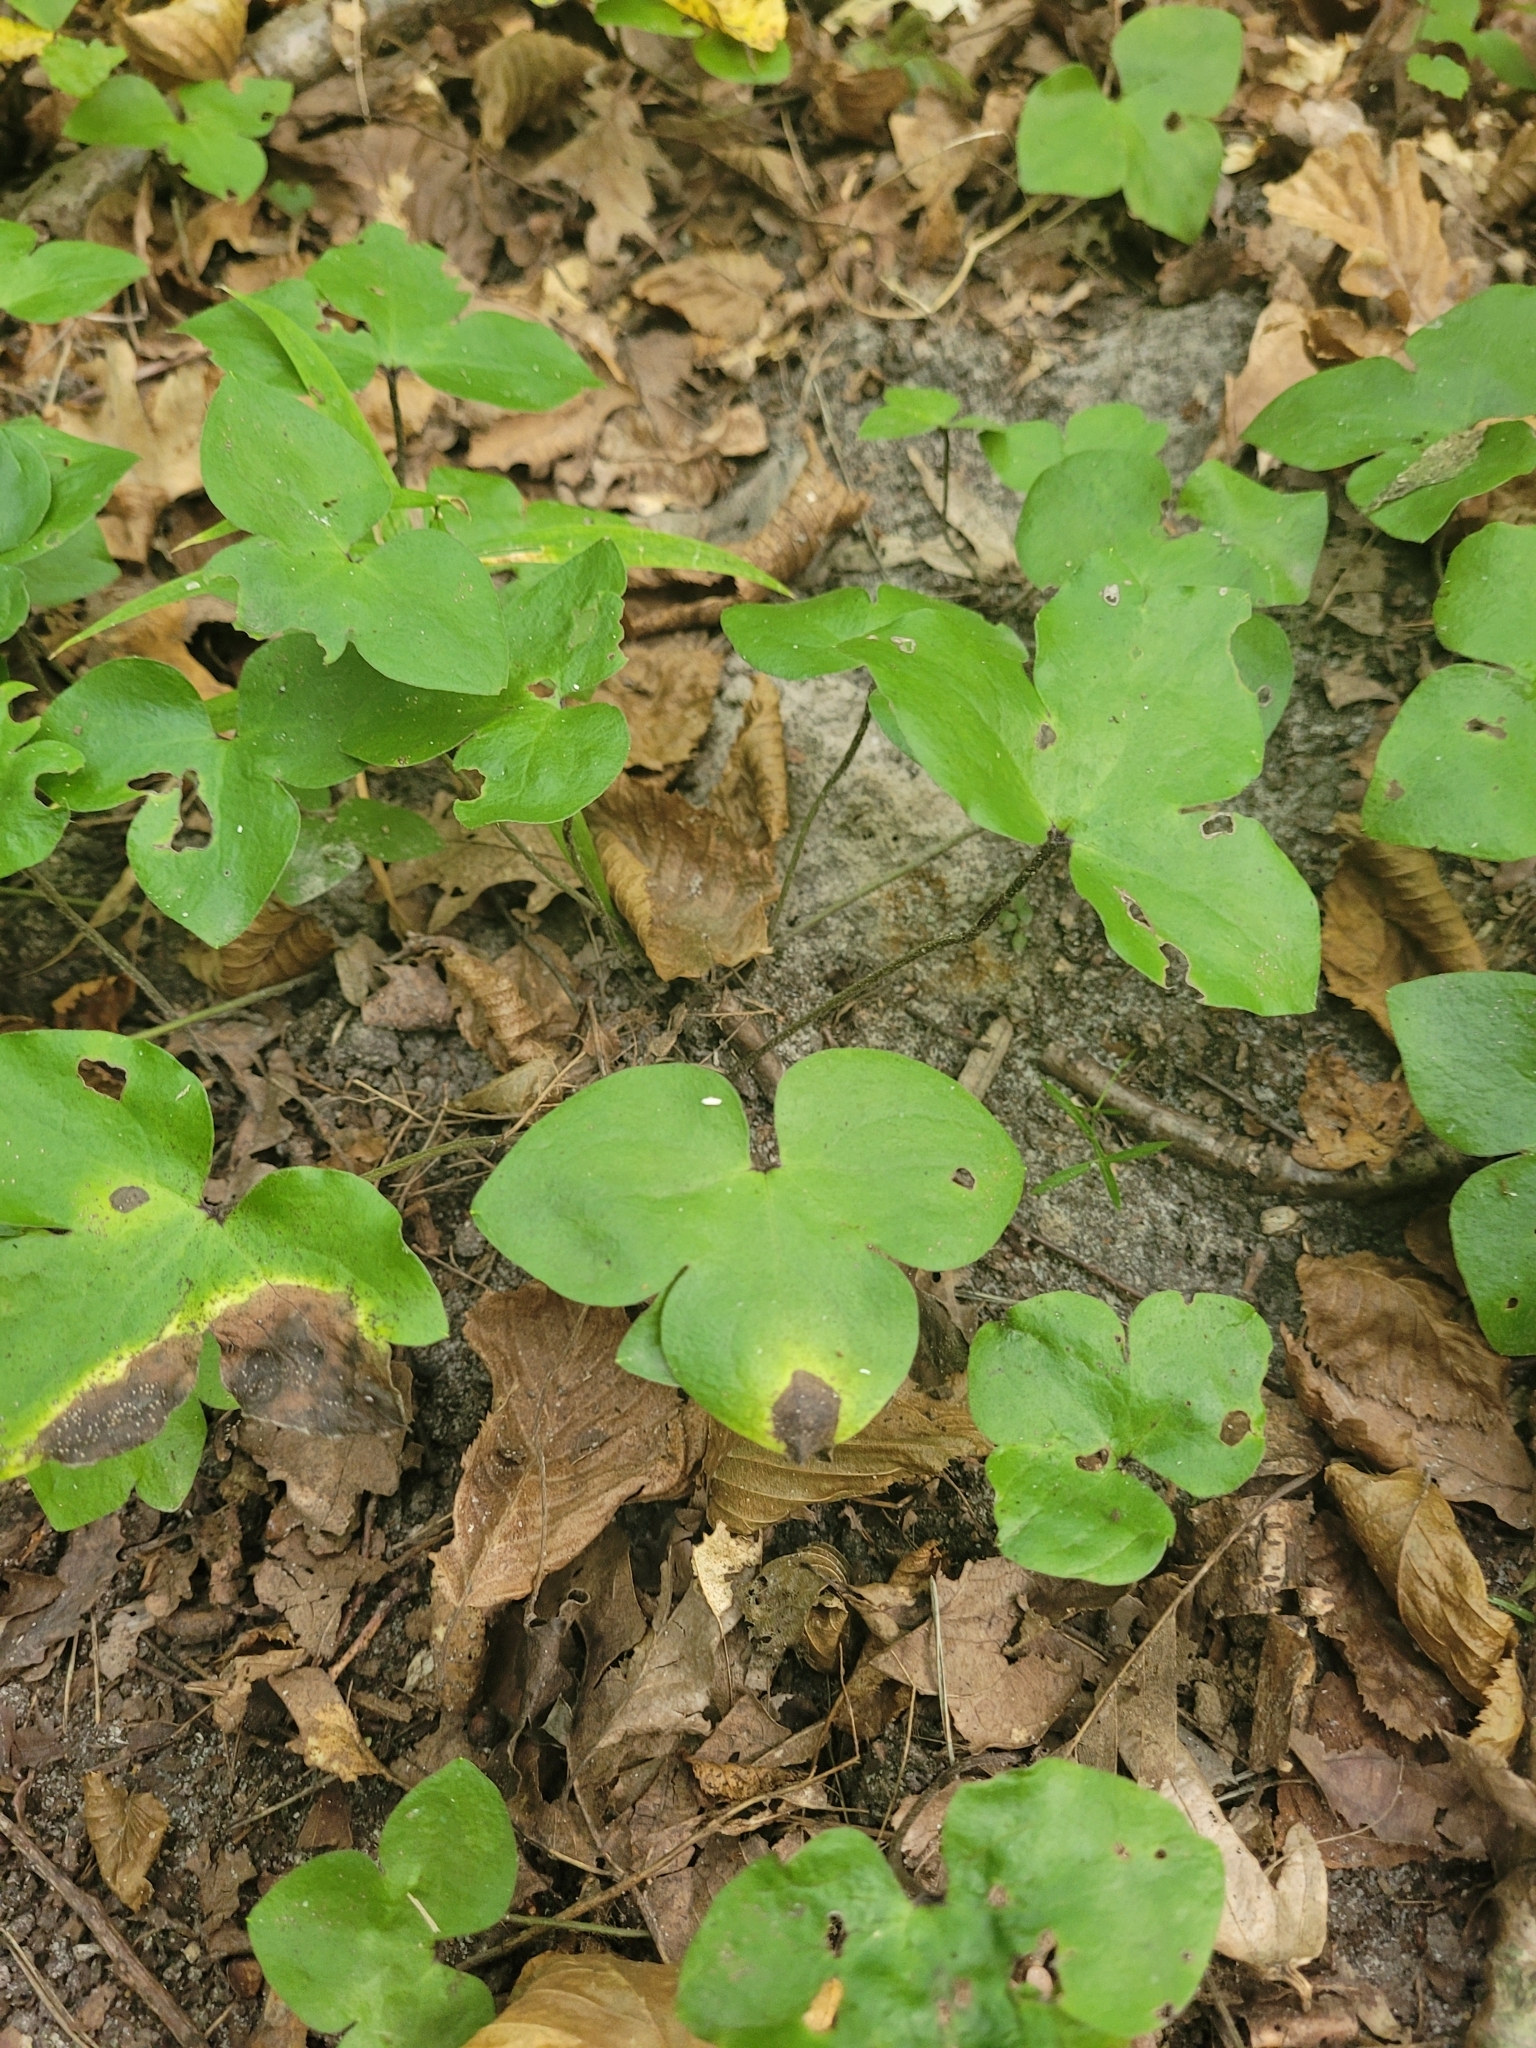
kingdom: Plantae
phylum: Tracheophyta
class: Magnoliopsida
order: Ranunculales
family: Ranunculaceae
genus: Hepatica
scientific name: Hepatica nobilis
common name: Liverleaf
